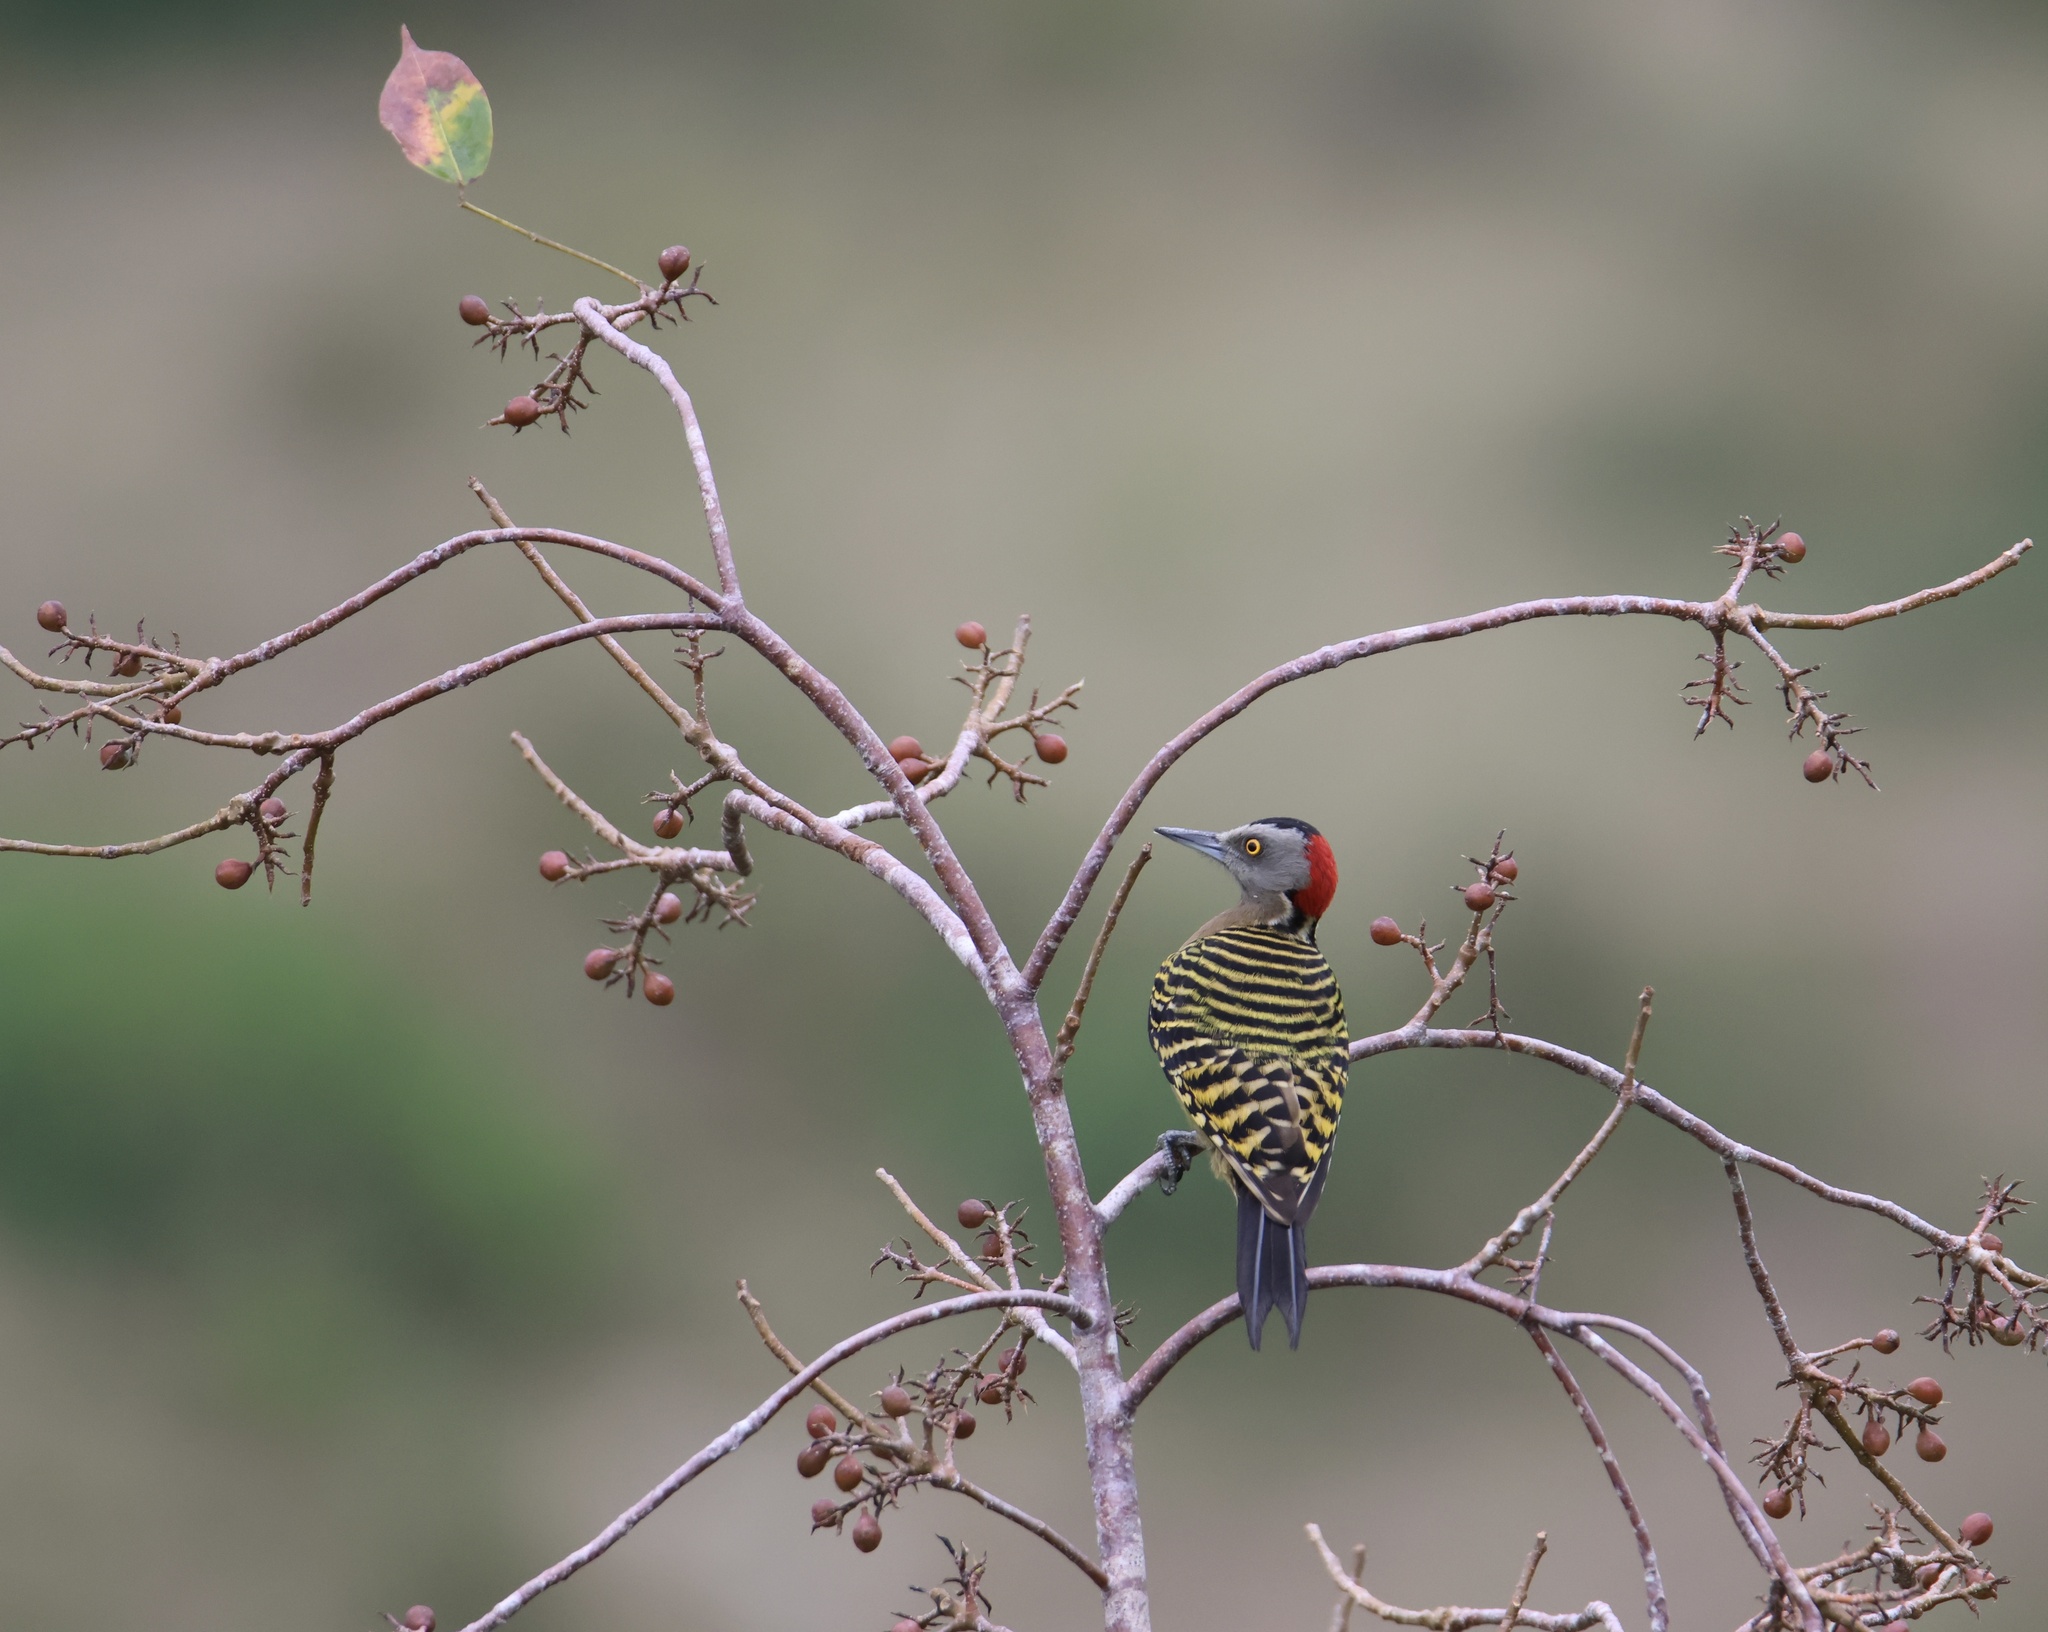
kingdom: Animalia
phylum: Chordata
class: Aves
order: Piciformes
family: Picidae
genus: Melanerpes
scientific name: Melanerpes striatus
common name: Hispaniolan woodpecker
